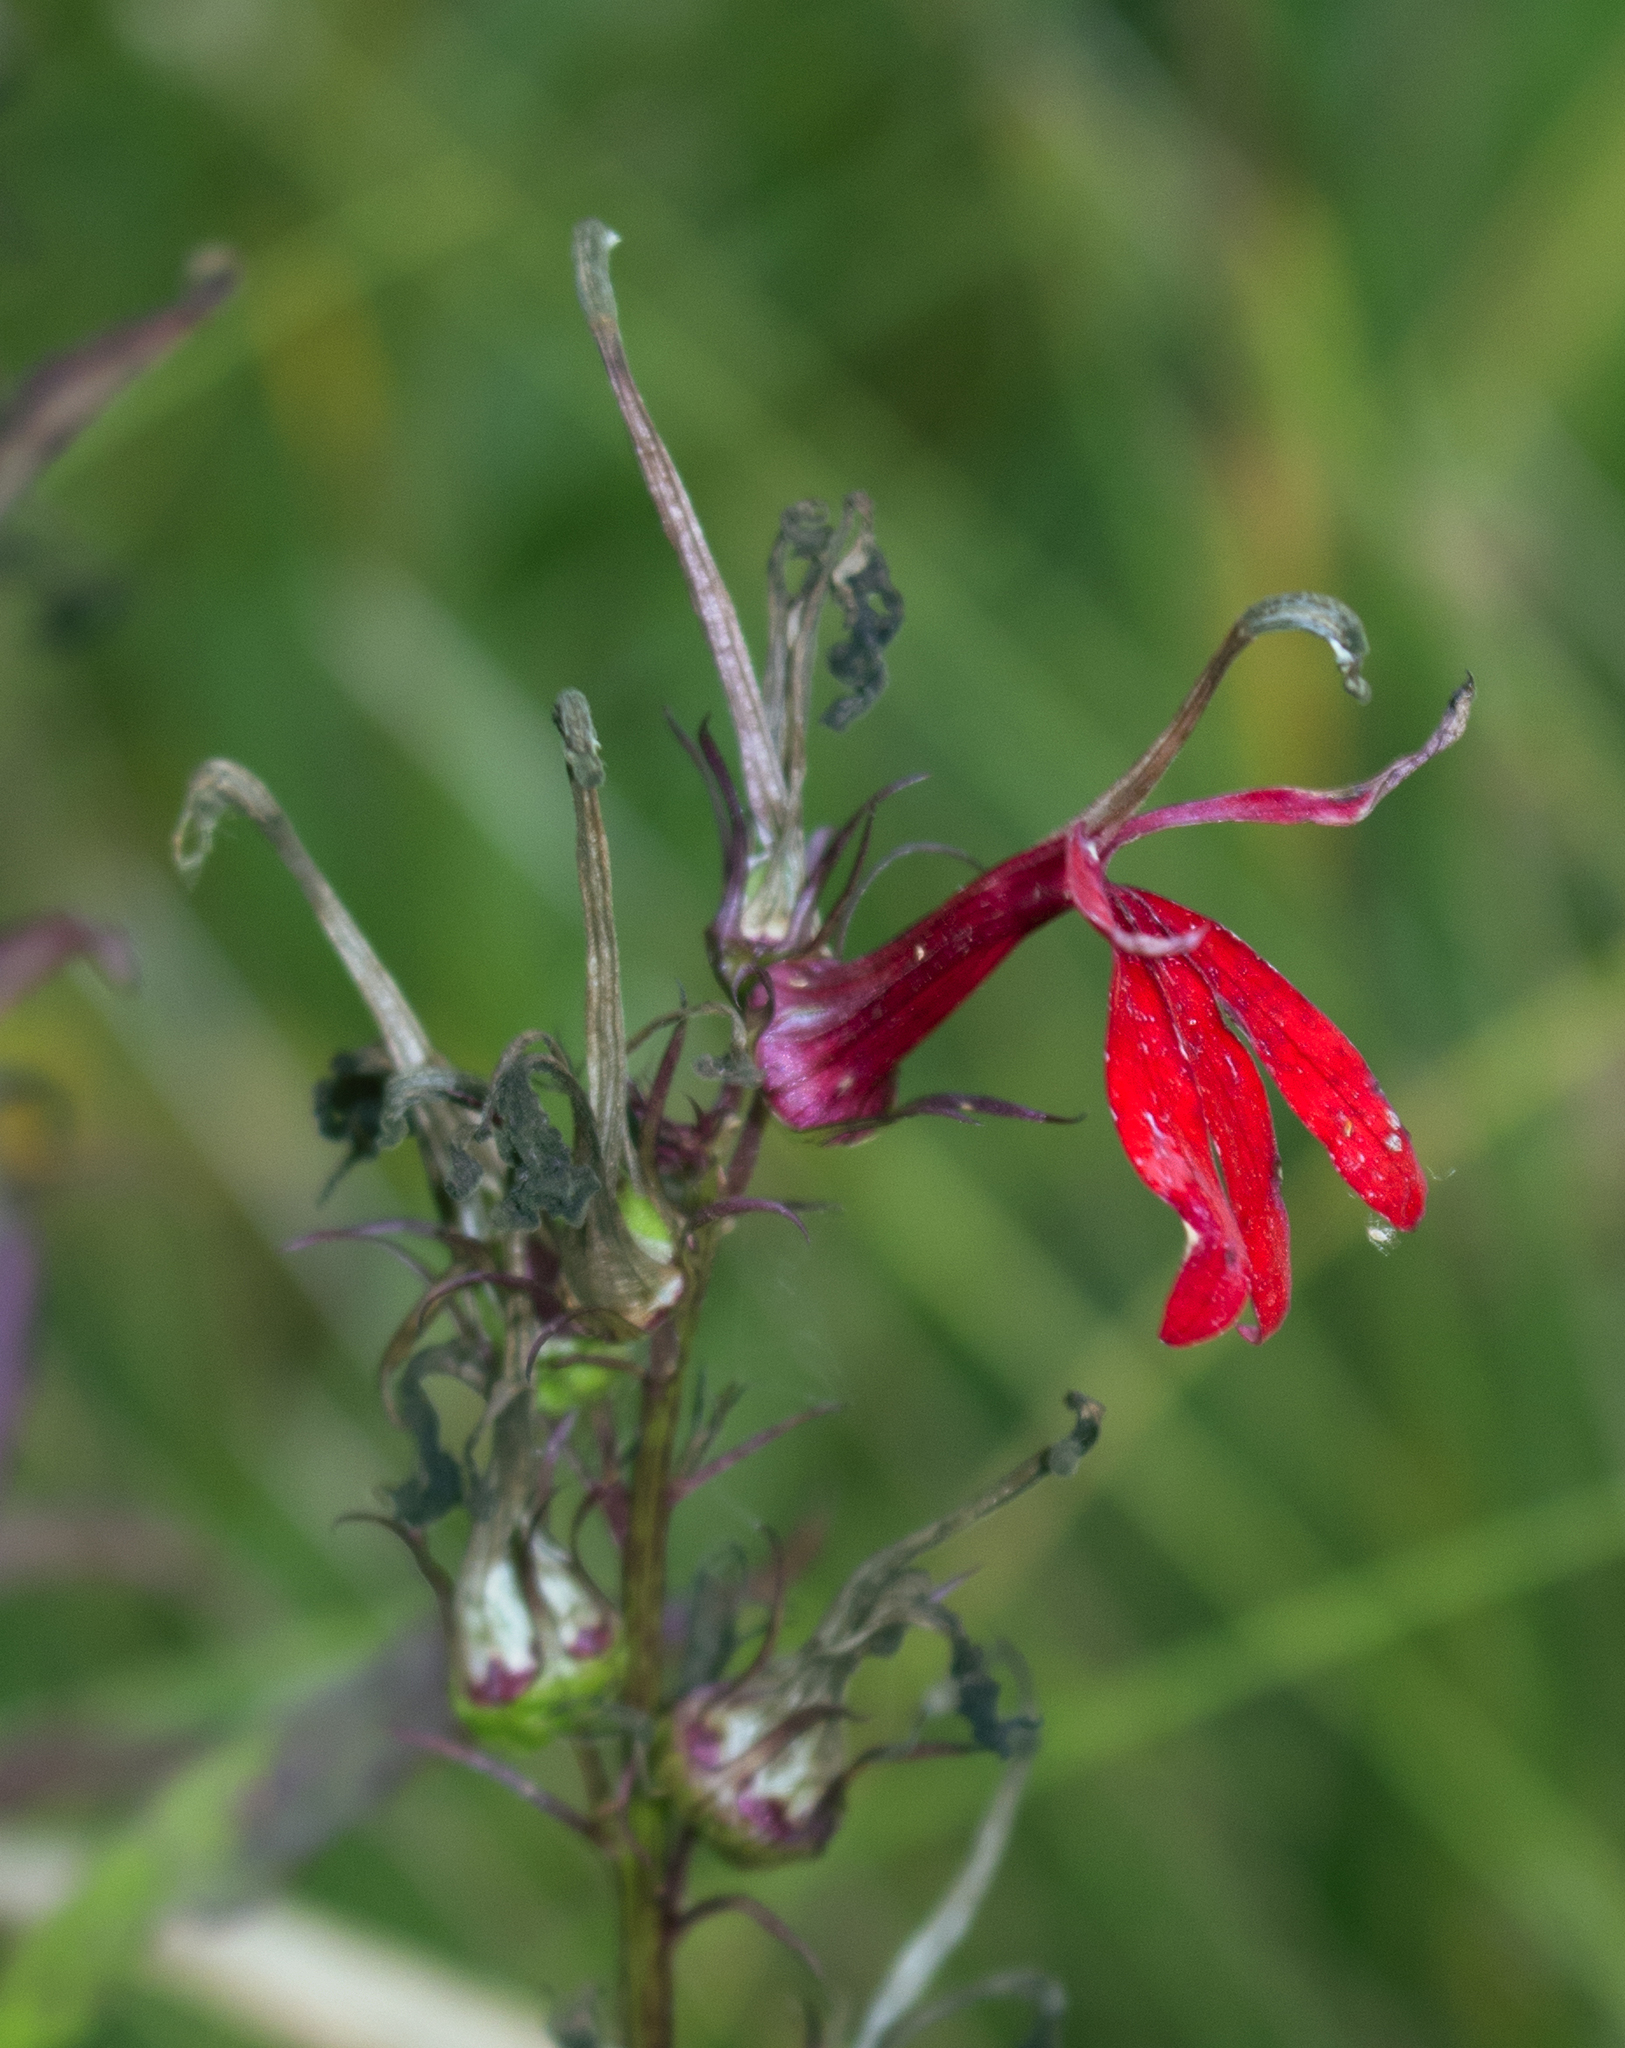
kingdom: Plantae
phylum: Tracheophyta
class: Magnoliopsida
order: Asterales
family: Campanulaceae
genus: Lobelia
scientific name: Lobelia cardinalis
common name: Cardinal flower
